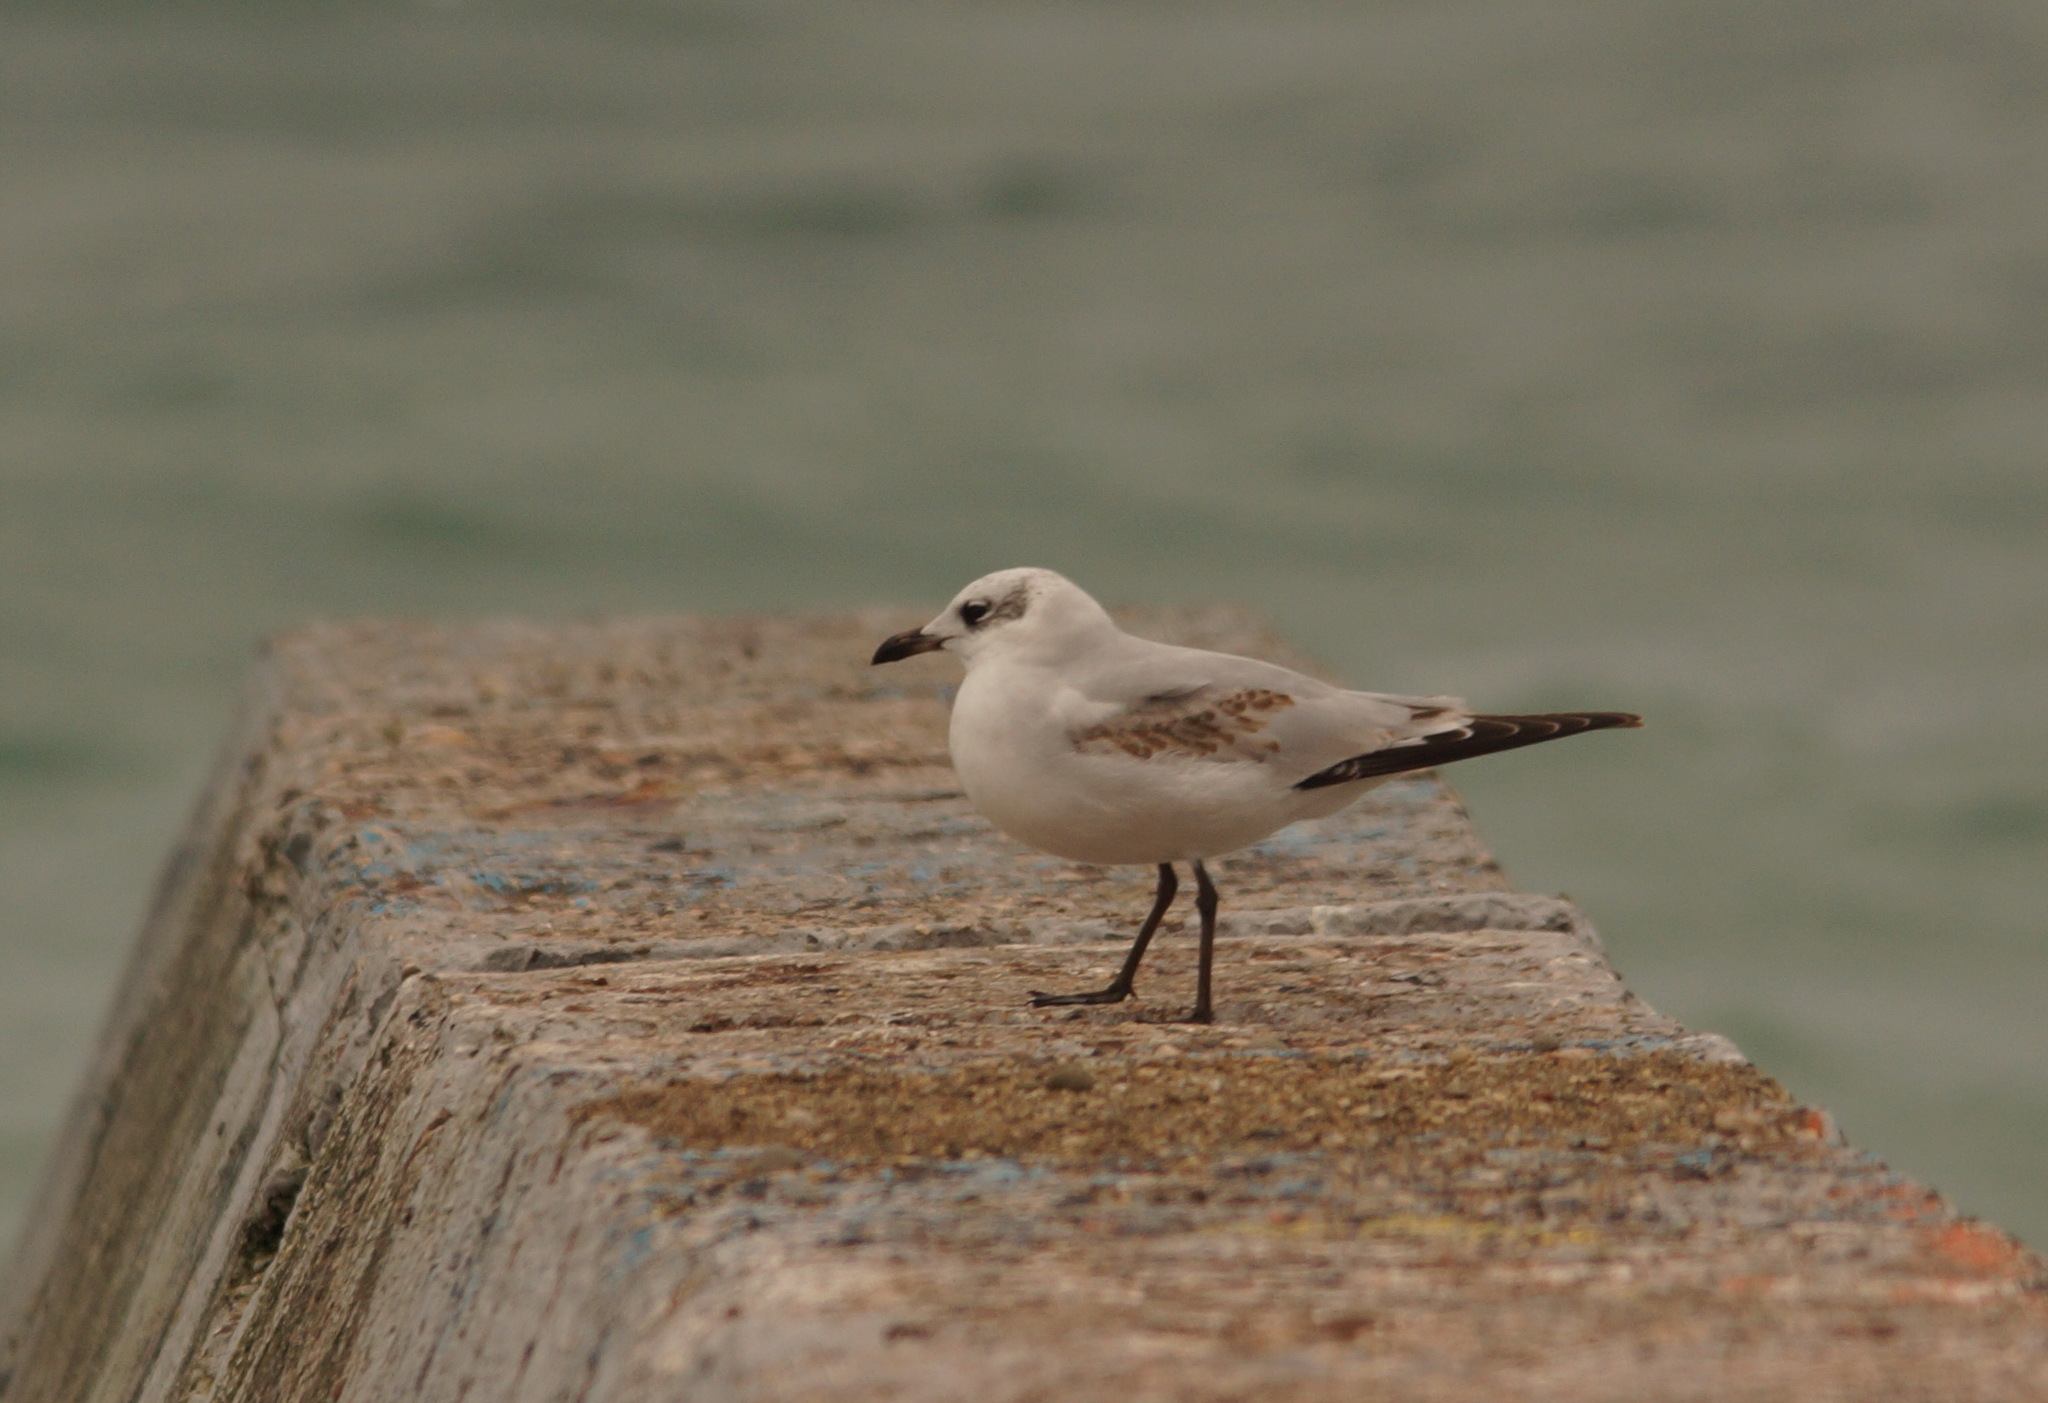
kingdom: Animalia
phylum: Chordata
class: Aves
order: Charadriiformes
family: Laridae
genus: Ichthyaetus
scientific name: Ichthyaetus melanocephalus
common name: Mediterranean gull
